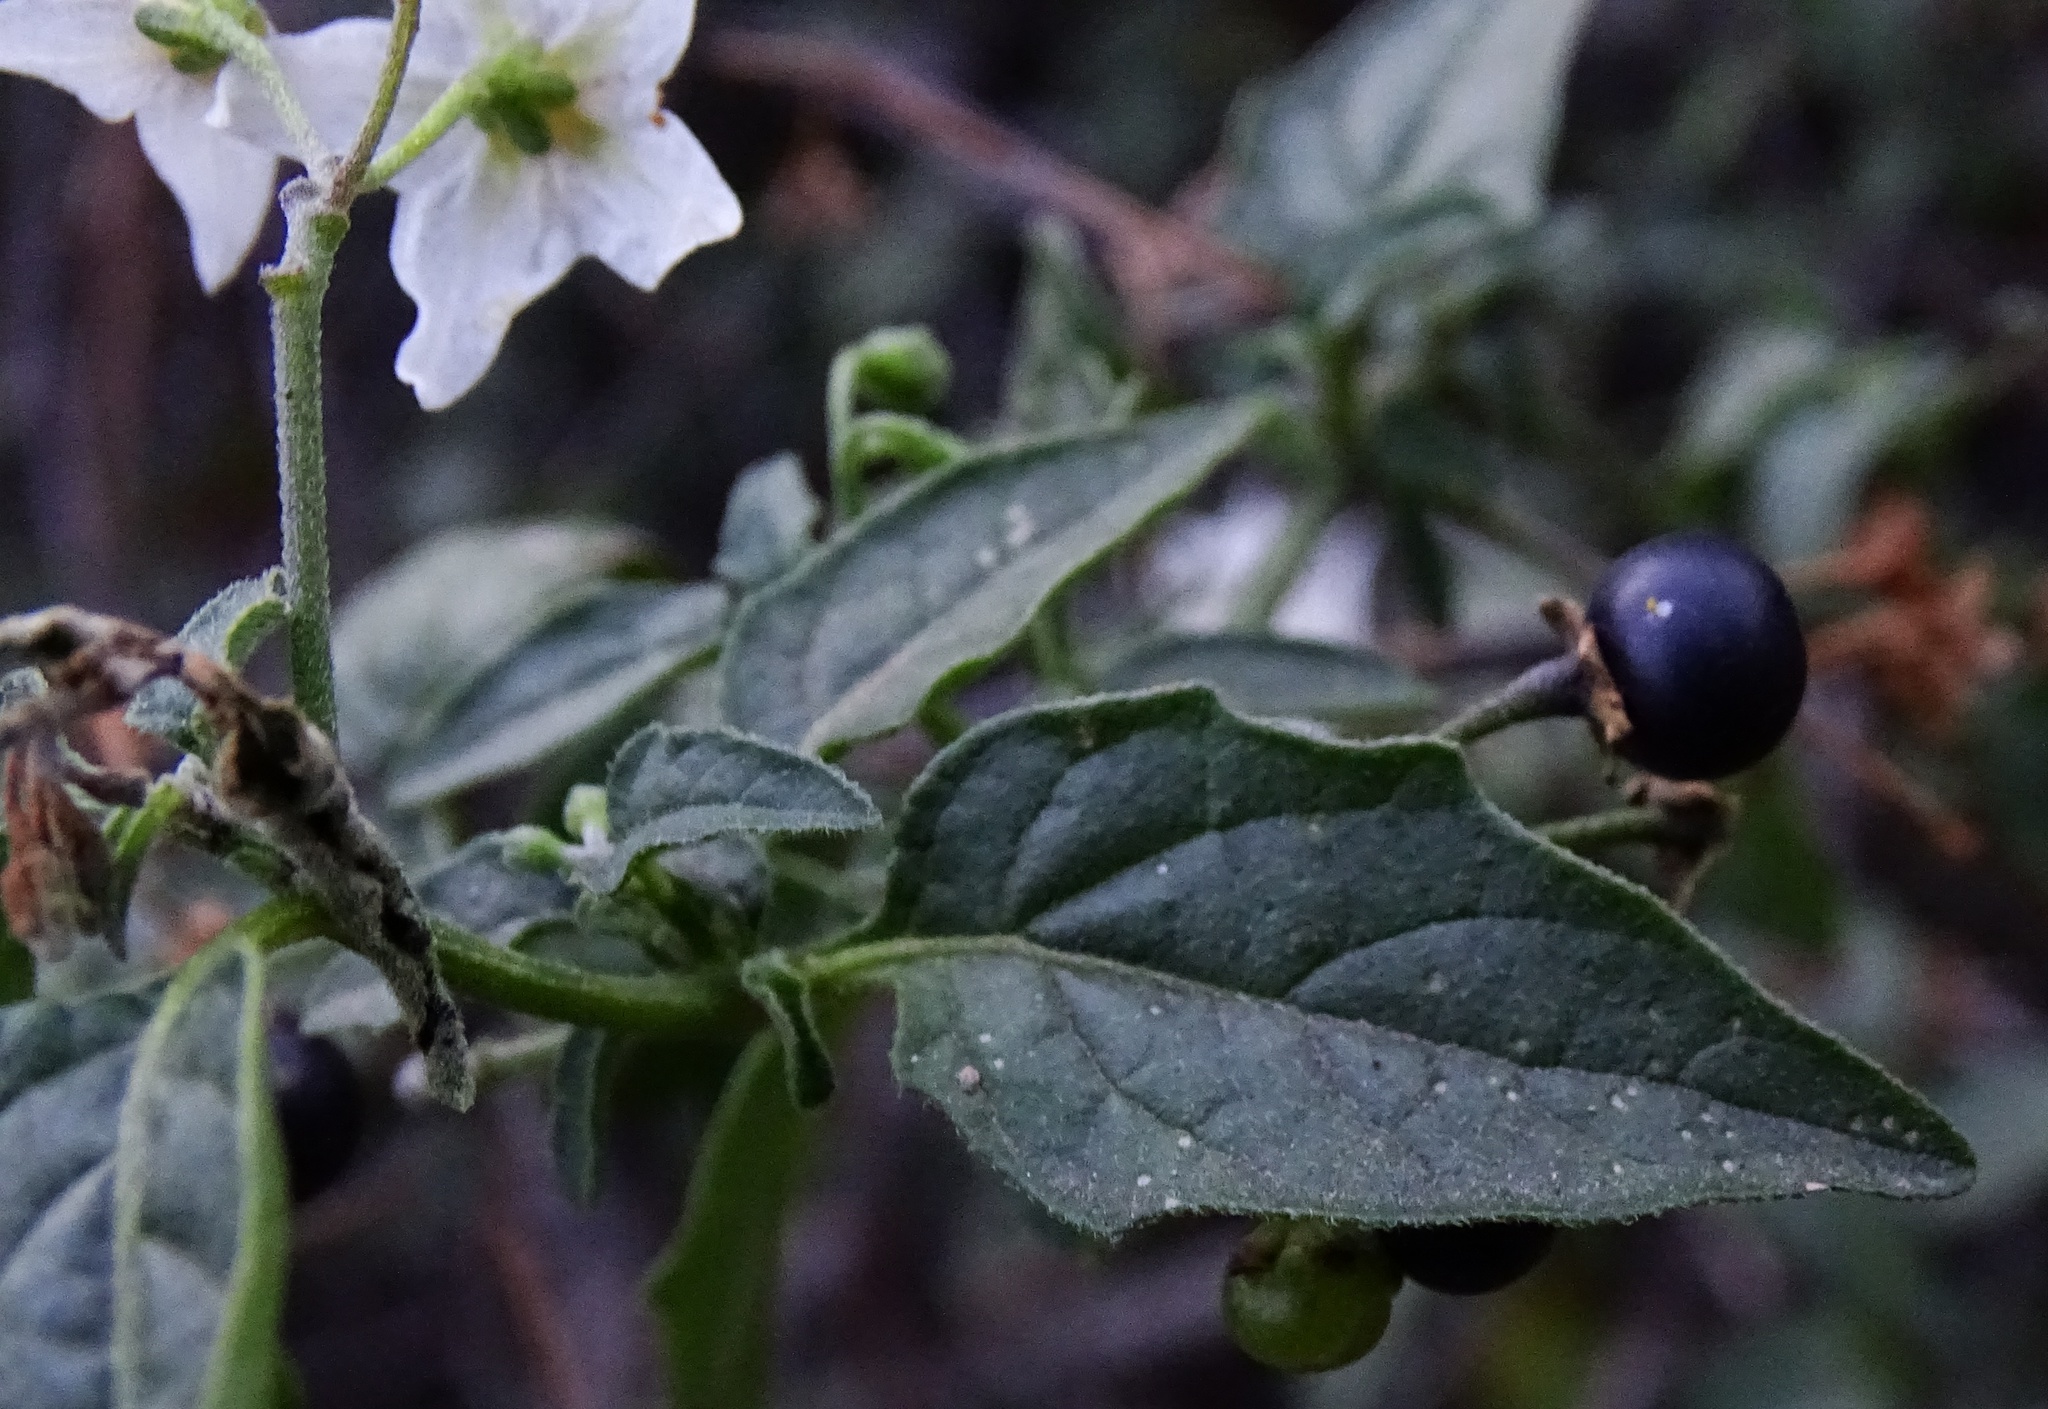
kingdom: Plantae
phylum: Tracheophyta
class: Magnoliopsida
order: Solanales
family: Solanaceae
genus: Solanum
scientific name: Solanum douglasii
